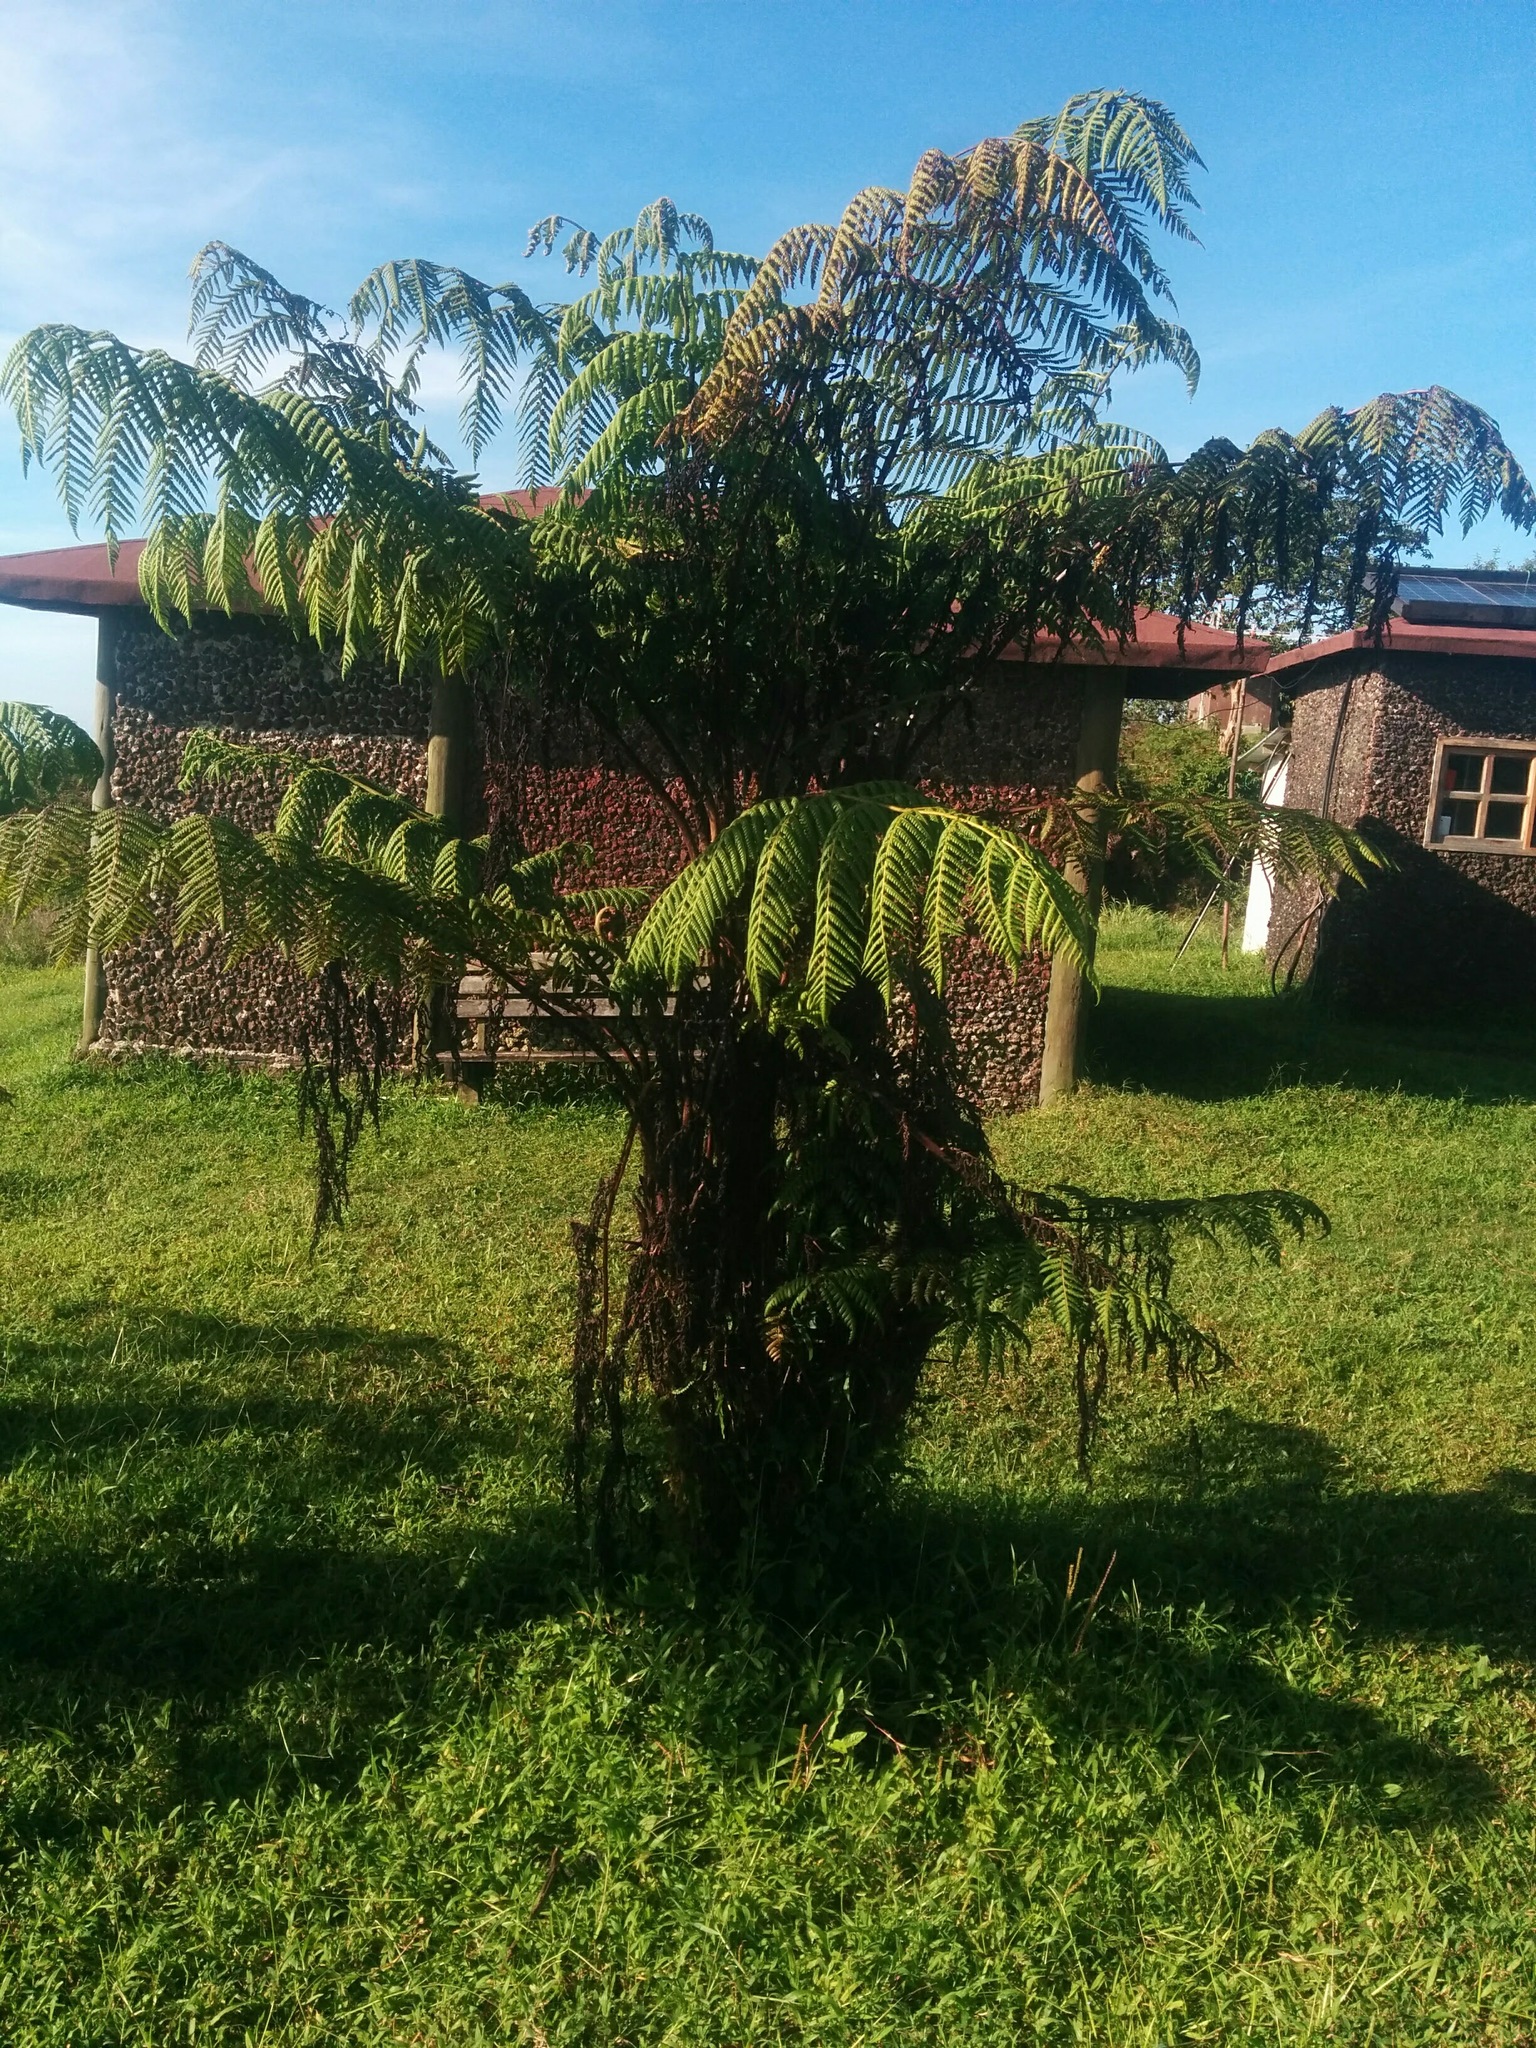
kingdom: Plantae
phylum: Tracheophyta
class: Polypodiopsida
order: Cyatheales
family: Cyatheaceae
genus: Cyathea
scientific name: Cyathea weatherbyana
